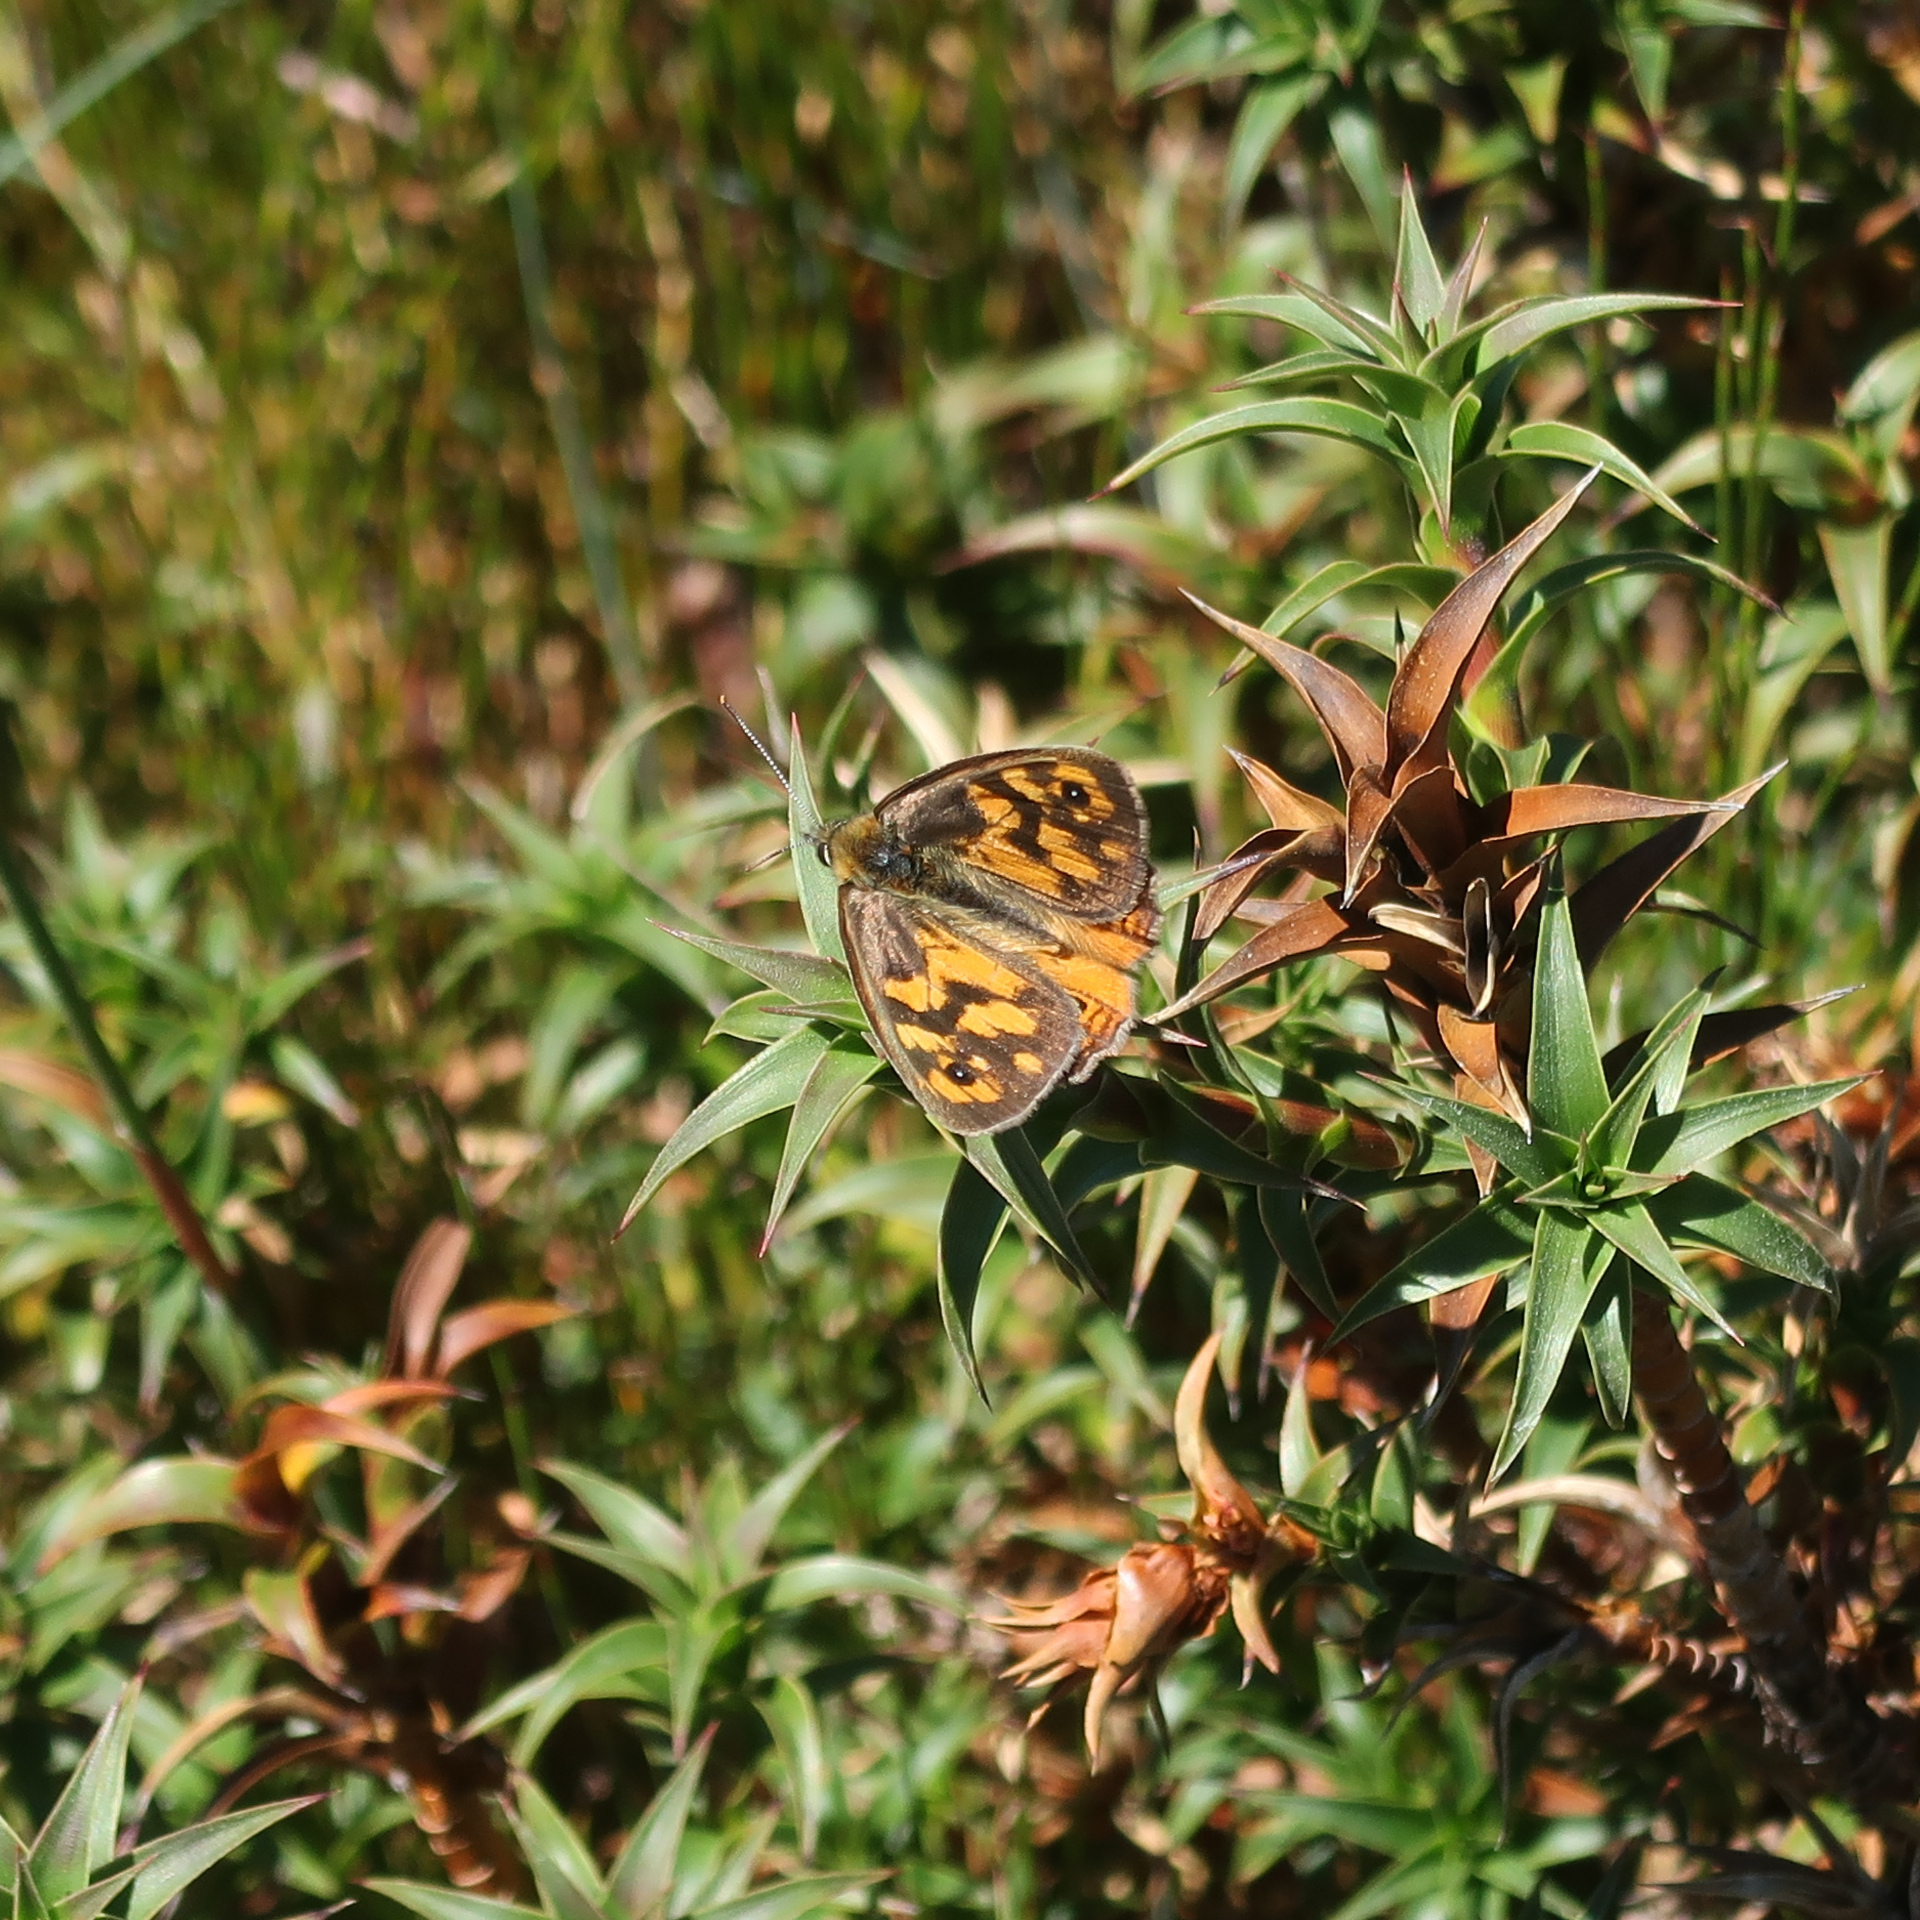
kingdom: Animalia
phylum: Arthropoda
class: Insecta
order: Lepidoptera
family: Nymphalidae
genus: Heteronympha
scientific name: Heteronympha penelope
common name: Shouldered brown
